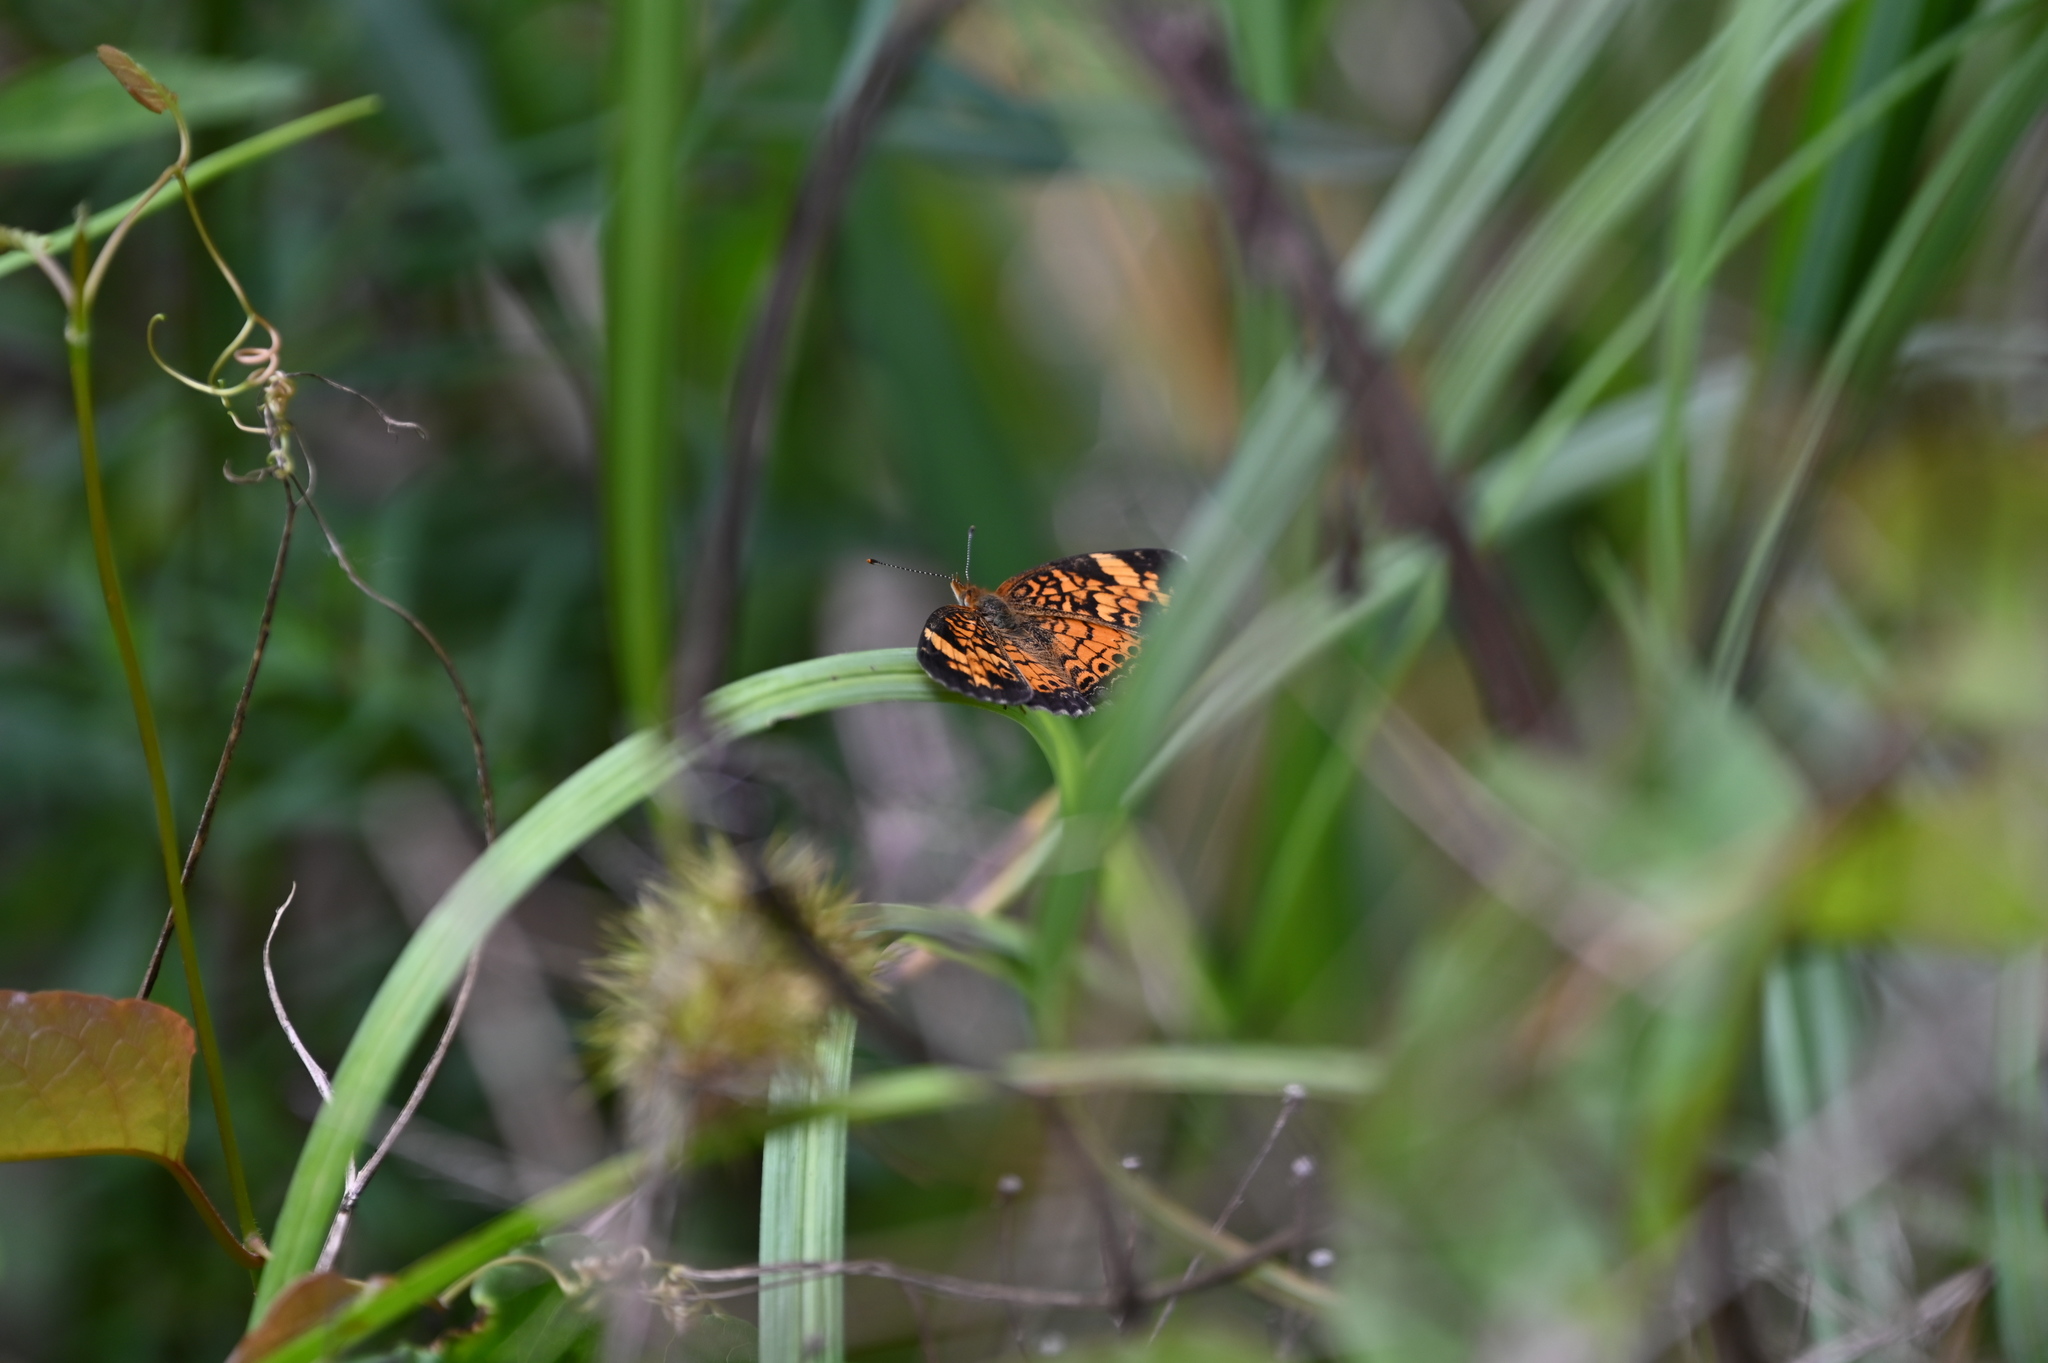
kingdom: Animalia
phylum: Arthropoda
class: Insecta
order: Lepidoptera
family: Nymphalidae
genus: Phyciodes
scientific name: Phyciodes tharos
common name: Pearl crescent
